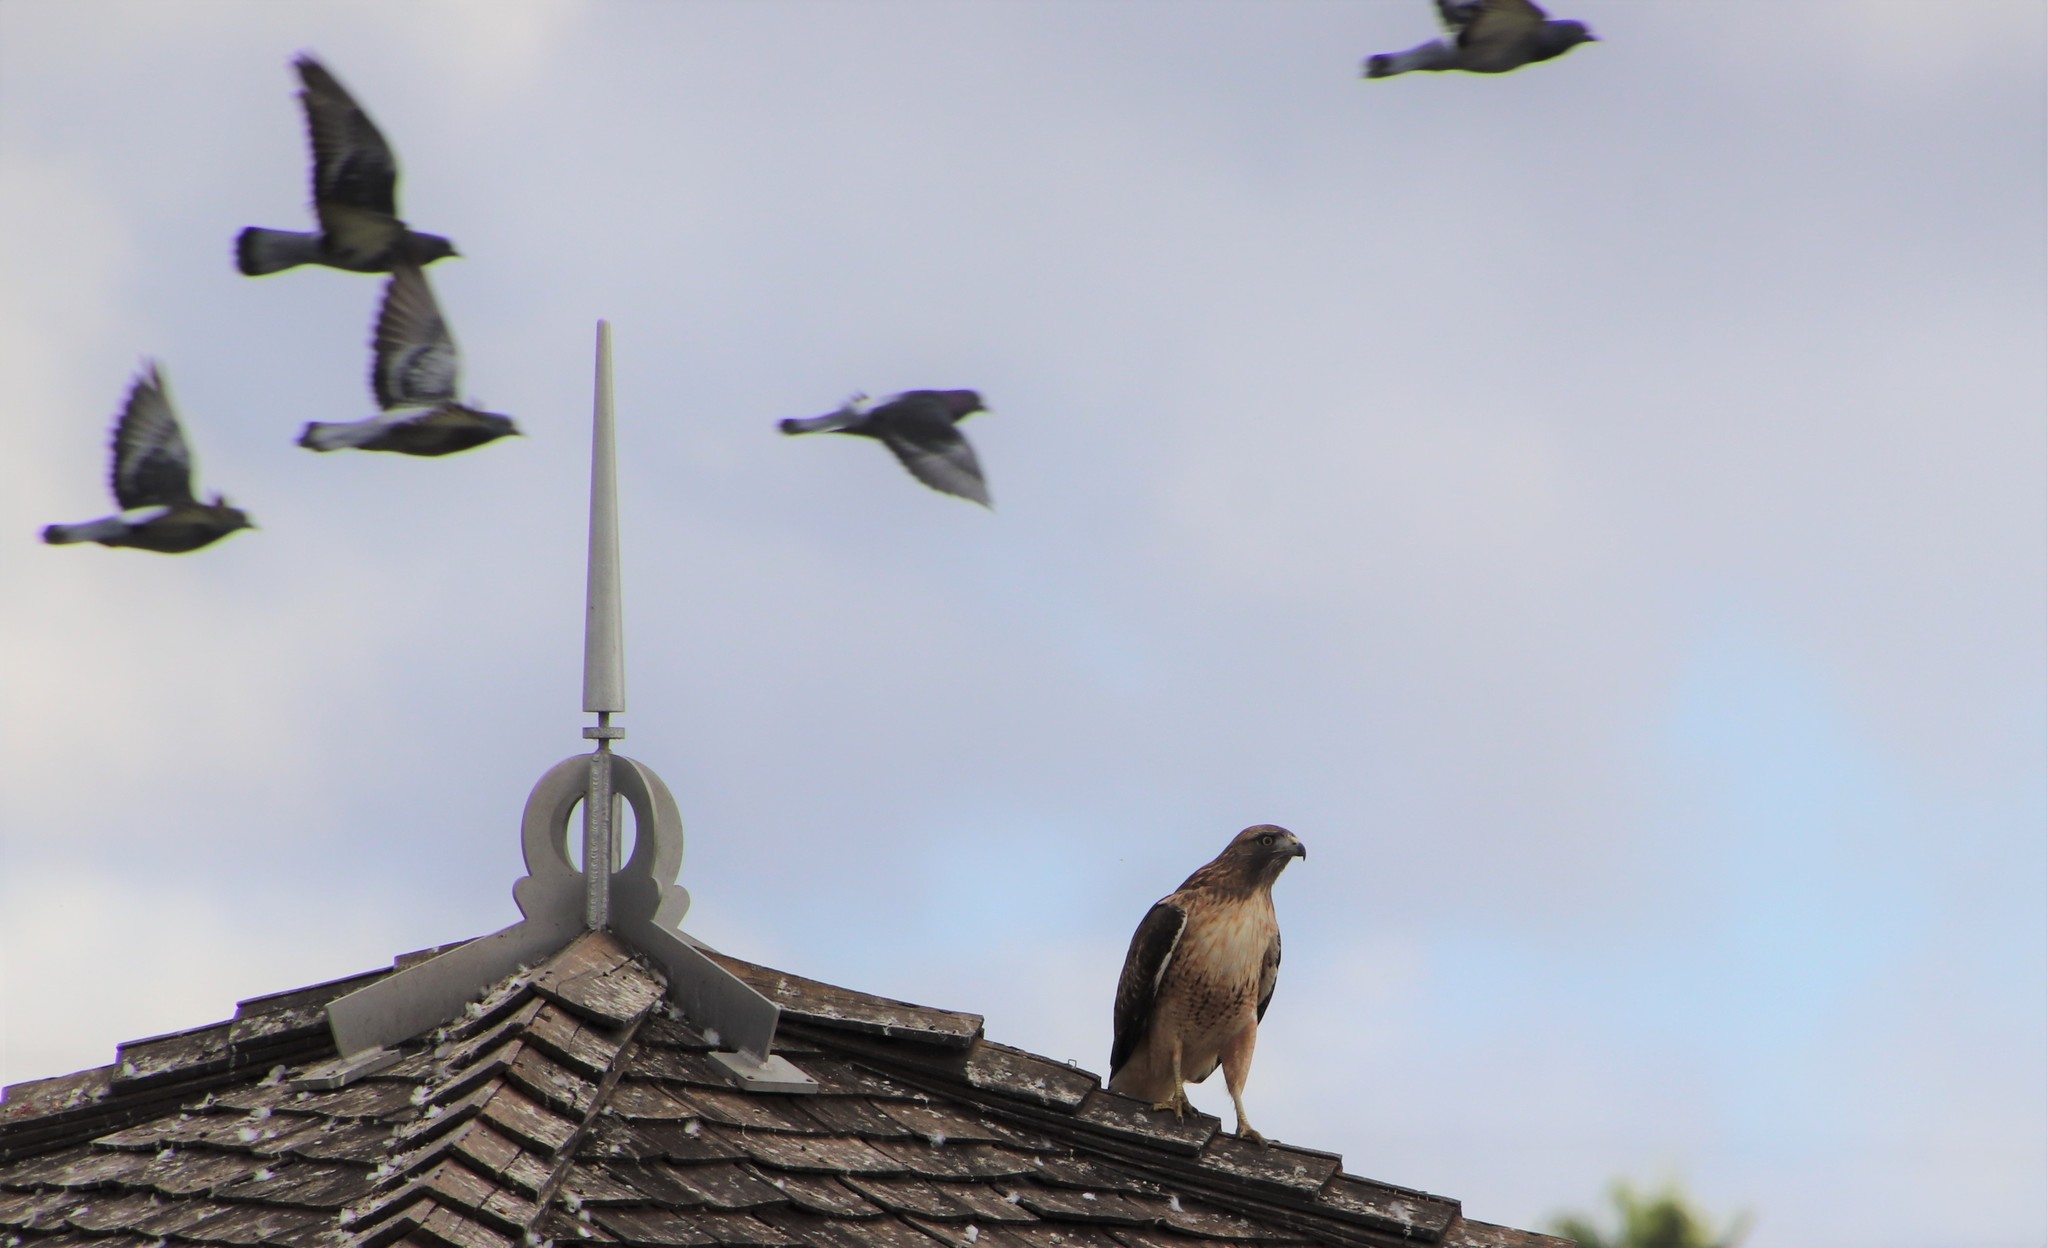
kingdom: Animalia
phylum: Chordata
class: Aves
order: Accipitriformes
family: Accipitridae
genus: Buteo
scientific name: Buteo jamaicensis
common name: Red-tailed hawk
